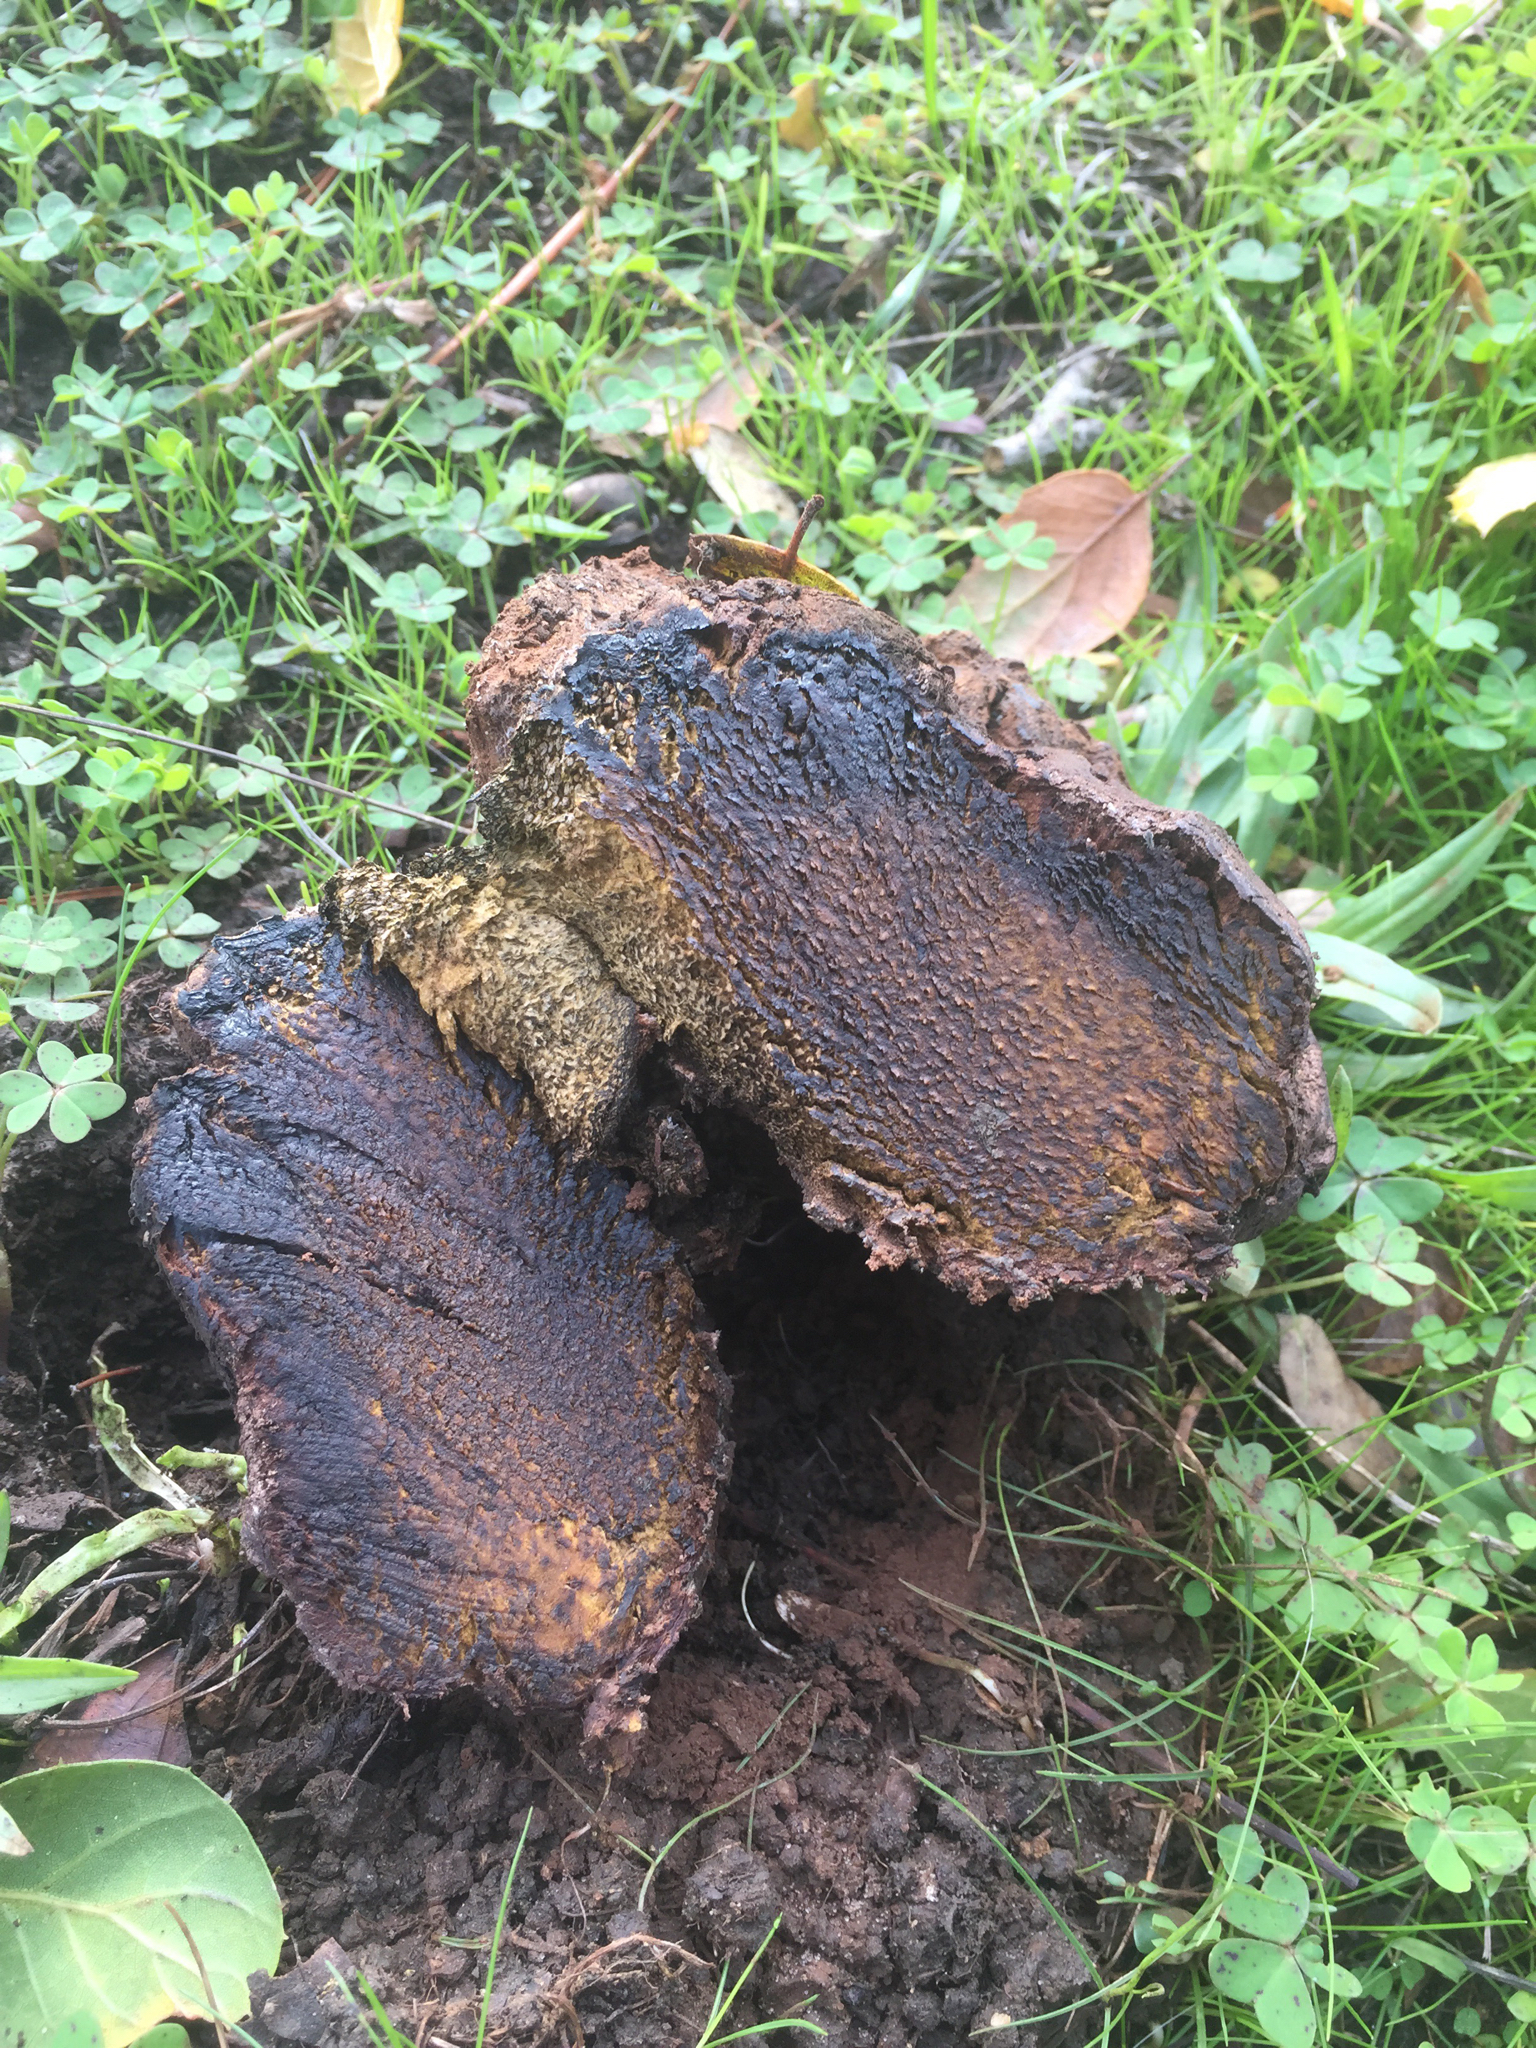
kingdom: Fungi
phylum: Basidiomycota
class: Agaricomycetes
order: Boletales
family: Sclerodermataceae
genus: Pisolithus
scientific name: Pisolithus arhizus
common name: Dyeball
